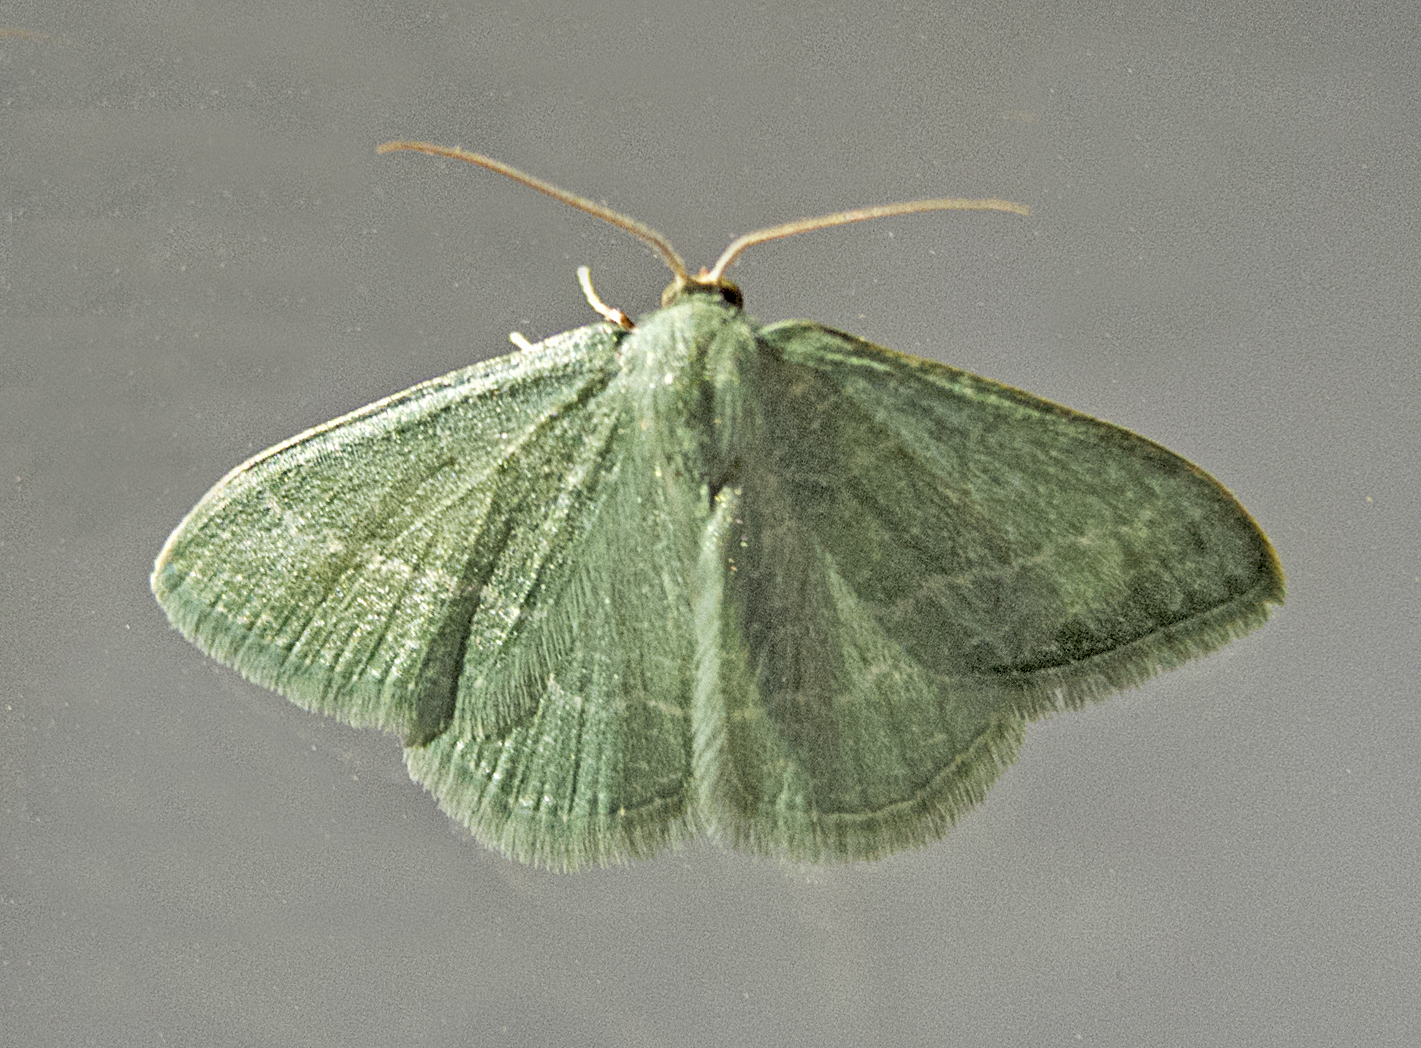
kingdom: Animalia
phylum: Arthropoda
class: Insecta
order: Lepidoptera
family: Geometridae
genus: Chlorissa
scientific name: Chlorissa etruscaria
